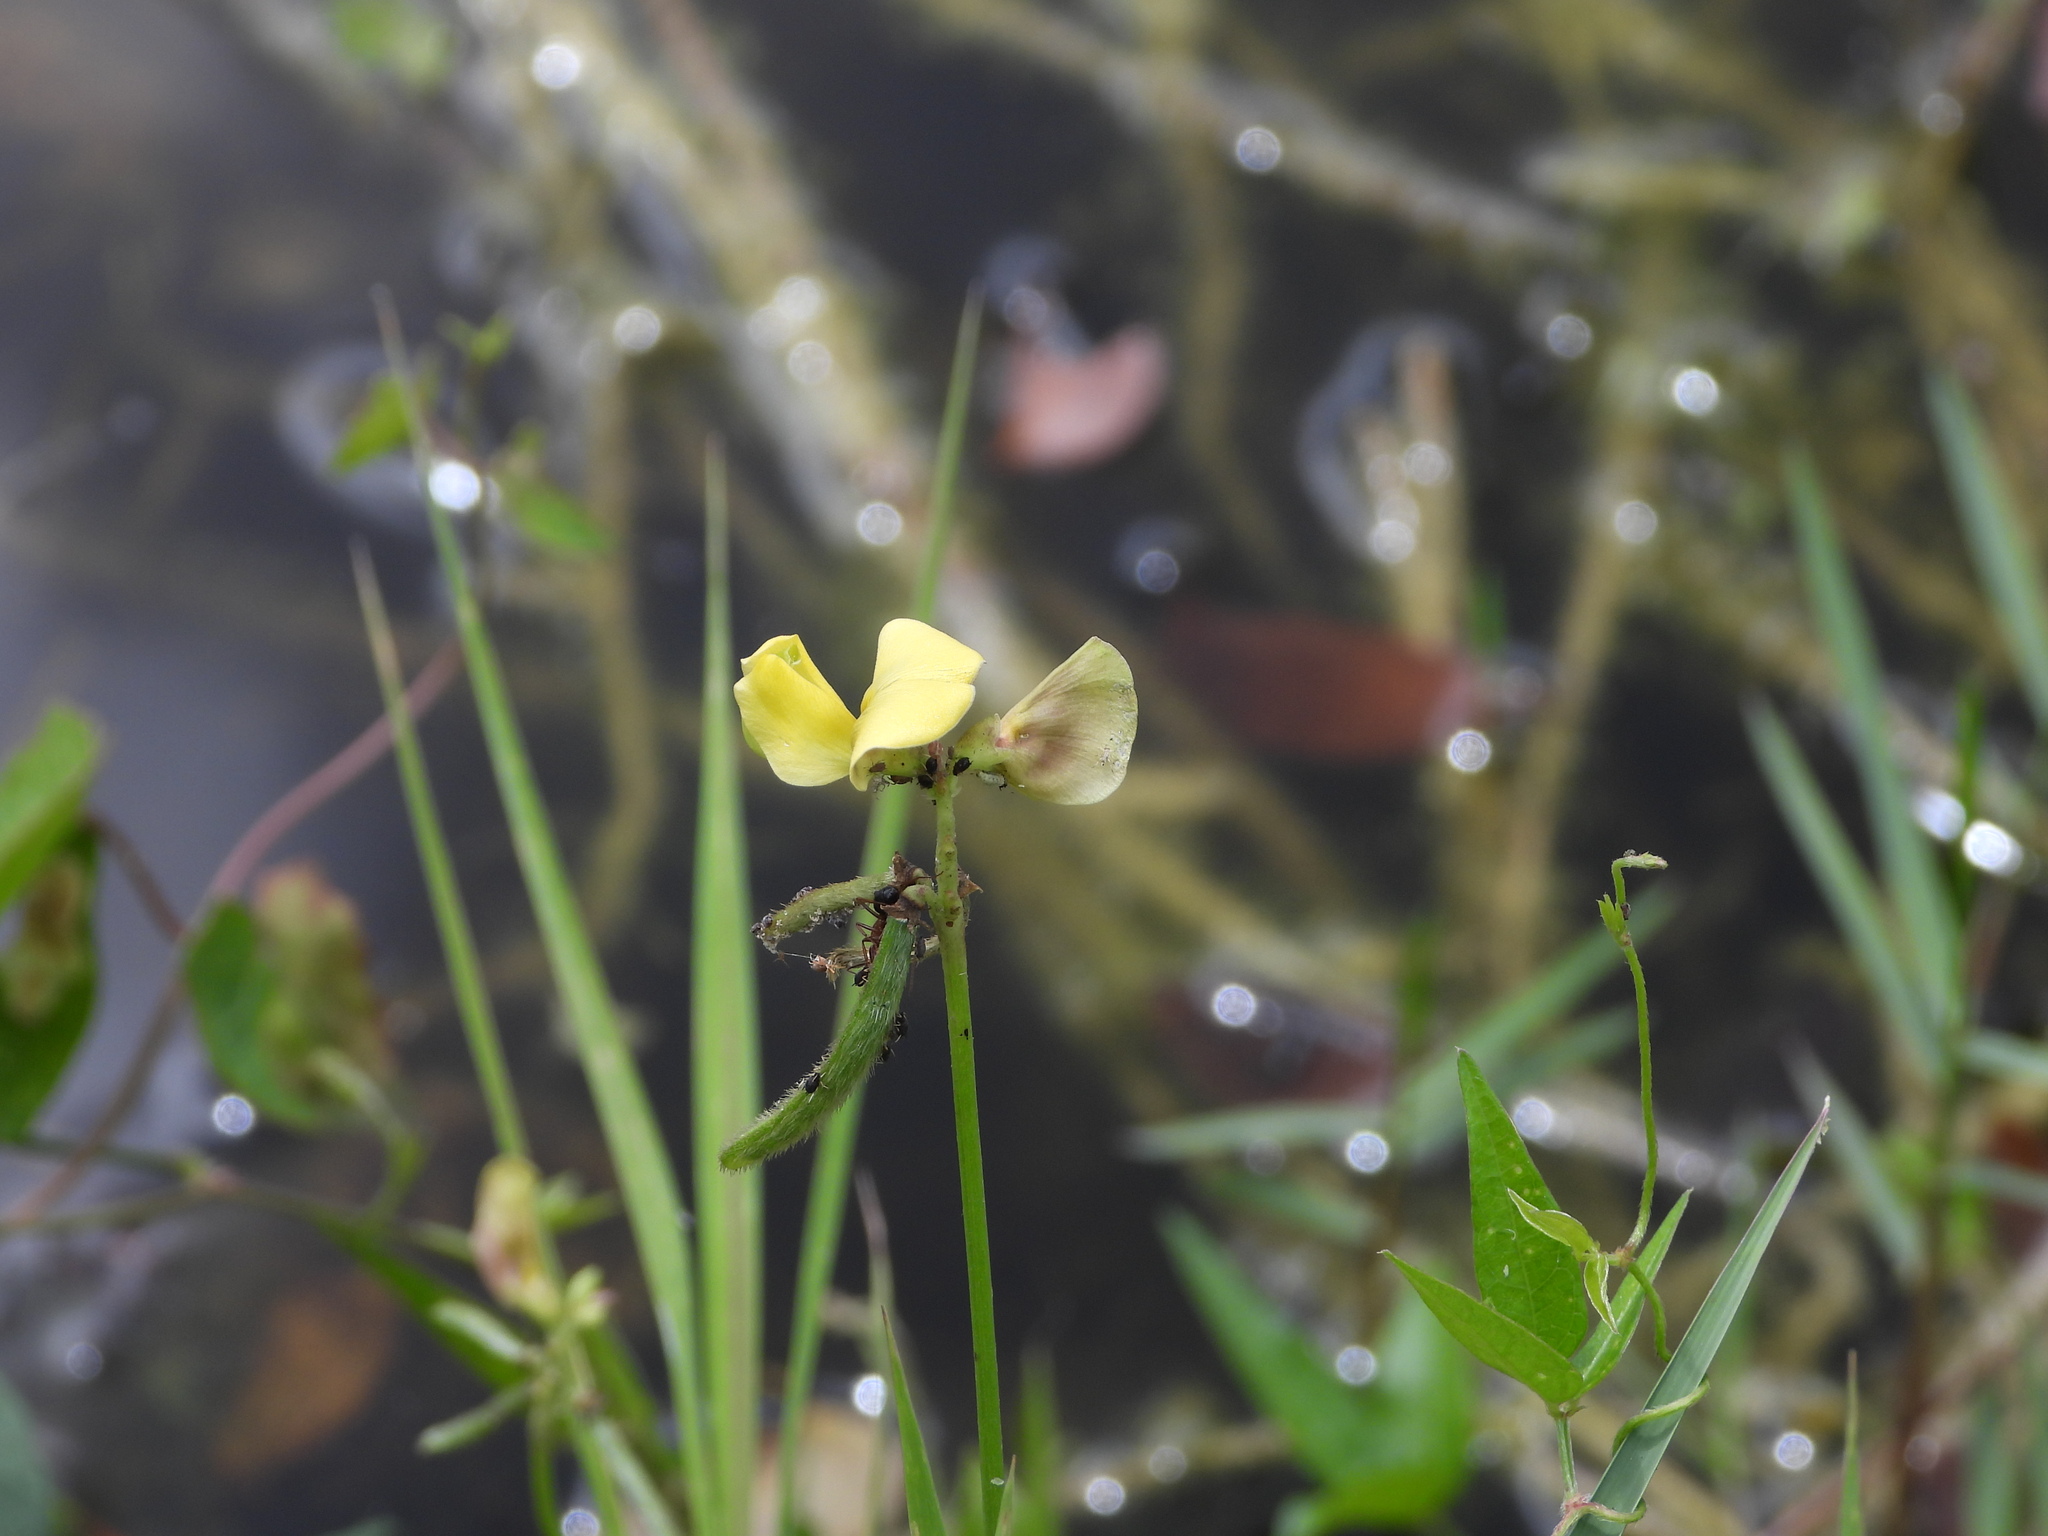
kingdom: Plantae
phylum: Tracheophyta
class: Magnoliopsida
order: Fabales
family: Fabaceae
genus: Vigna
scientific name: Vigna luteola
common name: Hairypod cowpea
